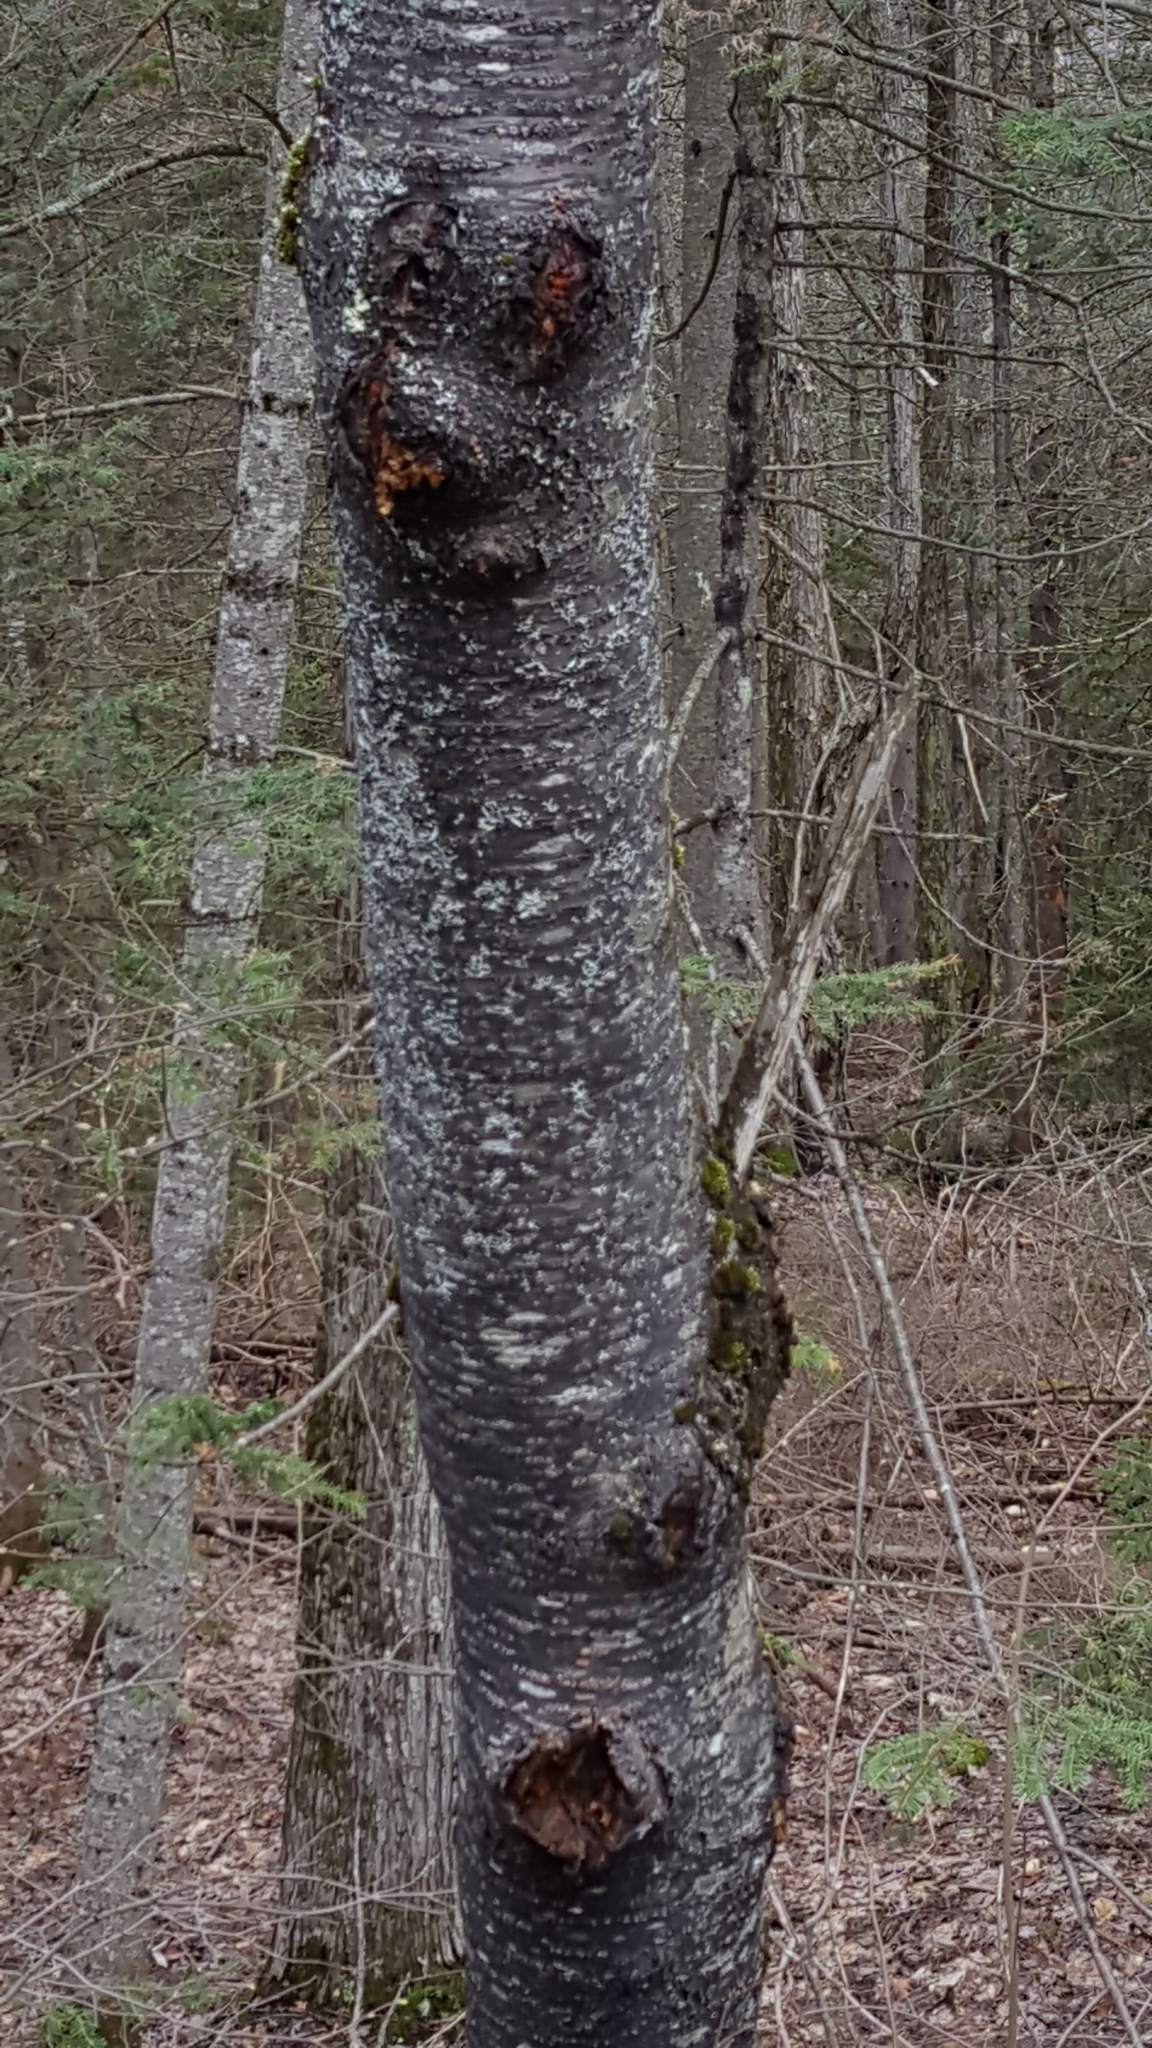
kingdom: Plantae
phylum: Tracheophyta
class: Magnoliopsida
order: Rosales
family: Rosaceae
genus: Prunus
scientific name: Prunus pensylvanica
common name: Pin cherry
